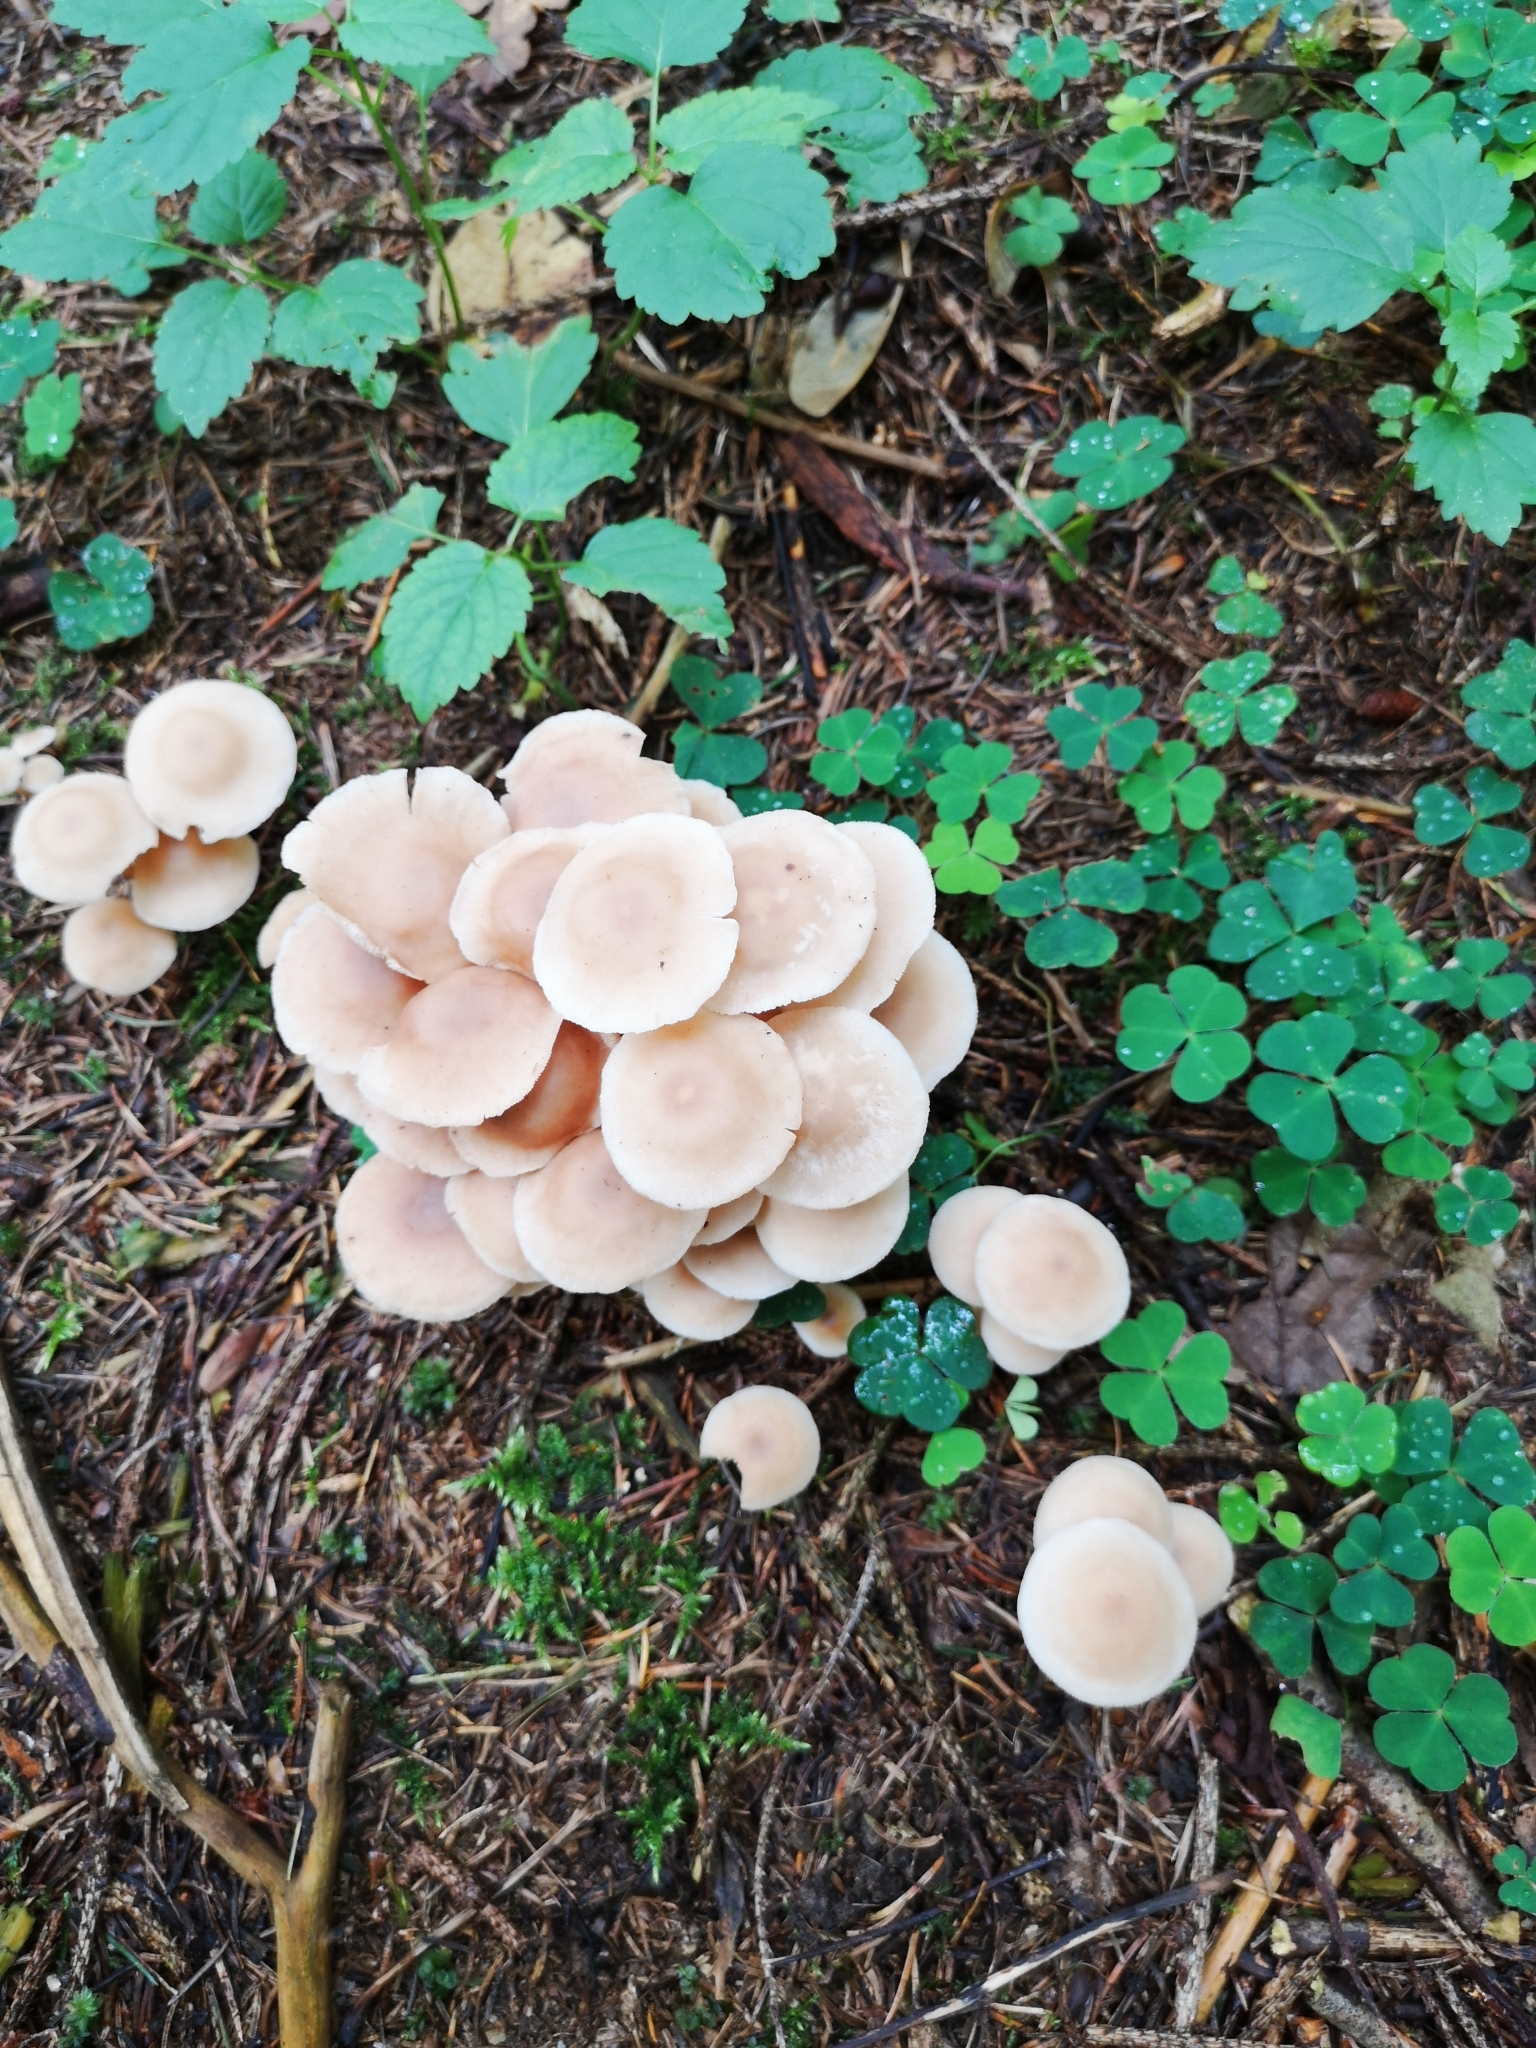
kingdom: Fungi
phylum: Basidiomycota
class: Agaricomycetes
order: Agaricales
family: Omphalotaceae
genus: Collybiopsis
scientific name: Collybiopsis confluens
